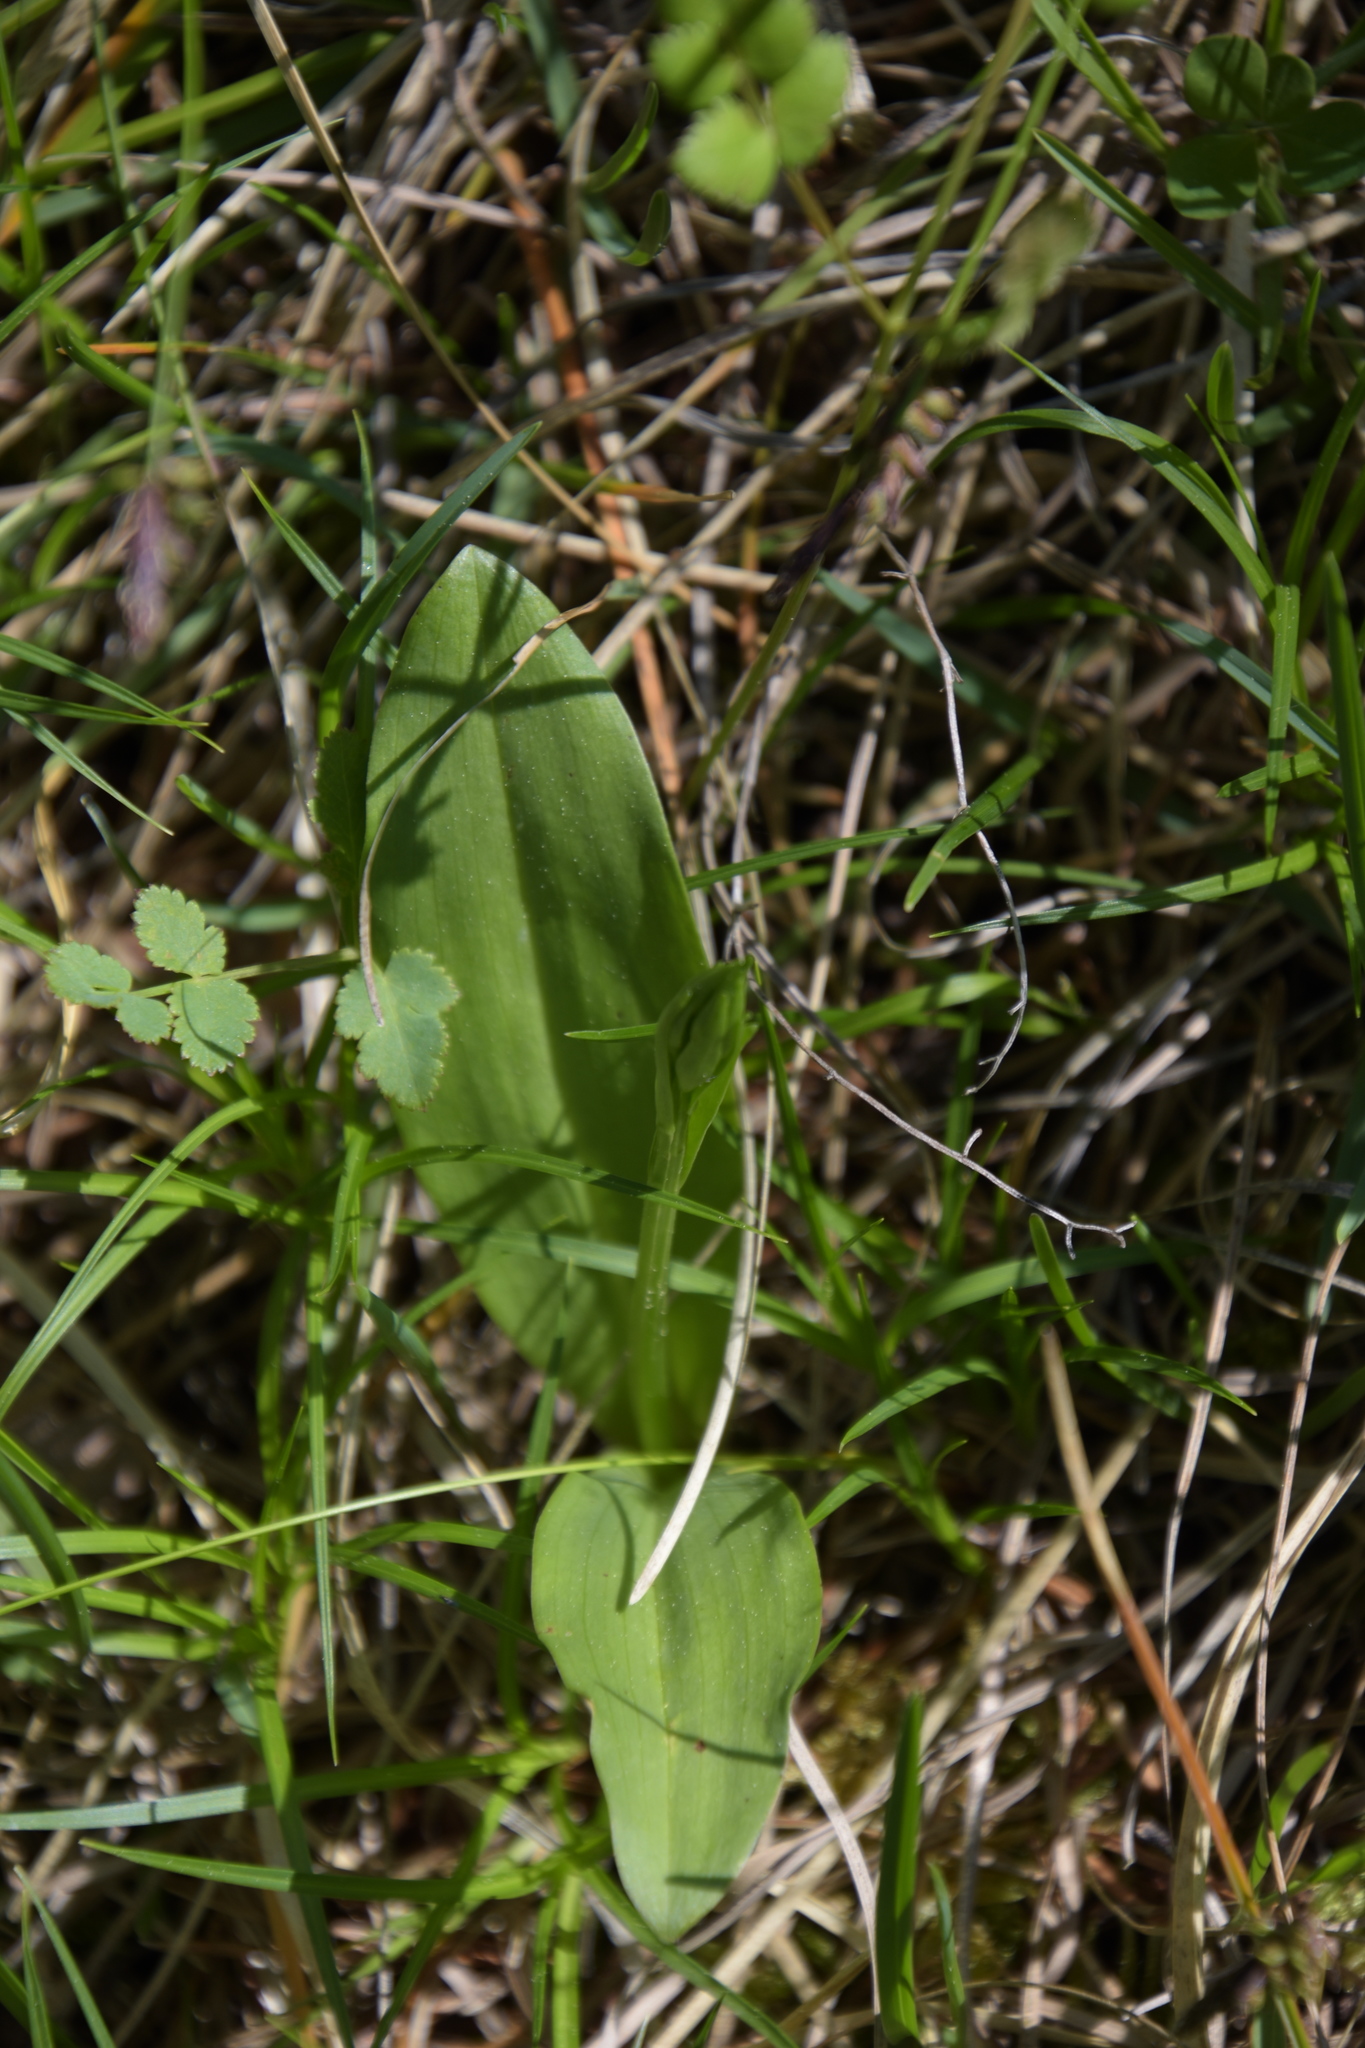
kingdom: Plantae
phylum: Tracheophyta
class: Liliopsida
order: Asparagales
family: Orchidaceae
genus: Neottia
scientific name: Neottia ovata
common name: Common twayblade
